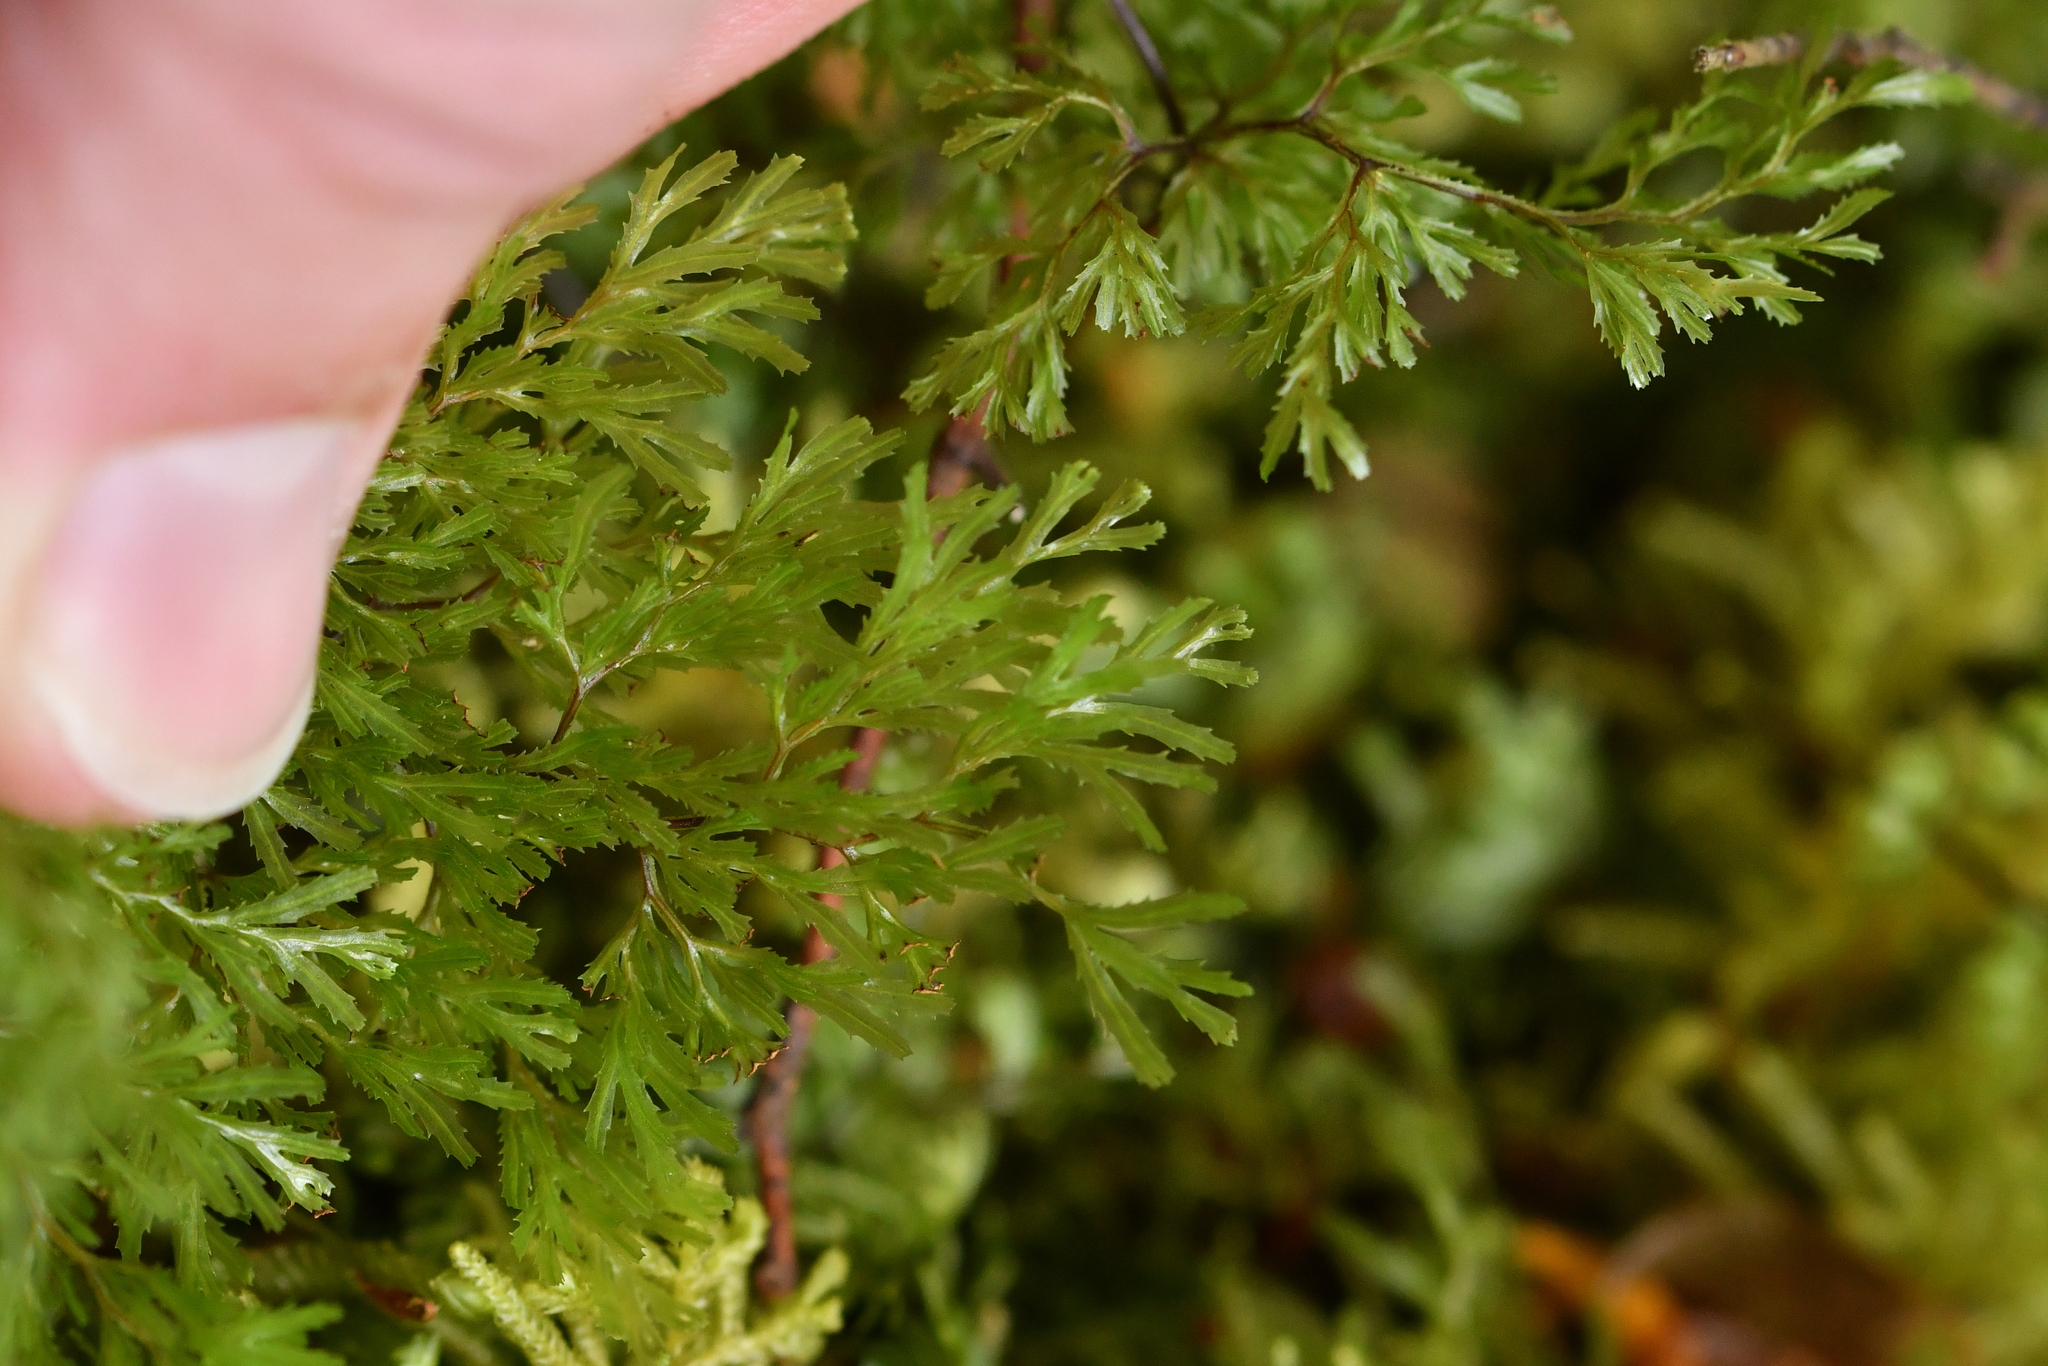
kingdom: Plantae
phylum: Tracheophyta
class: Polypodiopsida
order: Hymenophyllales
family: Hymenophyllaceae
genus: Hymenophyllum
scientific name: Hymenophyllum multifidum
